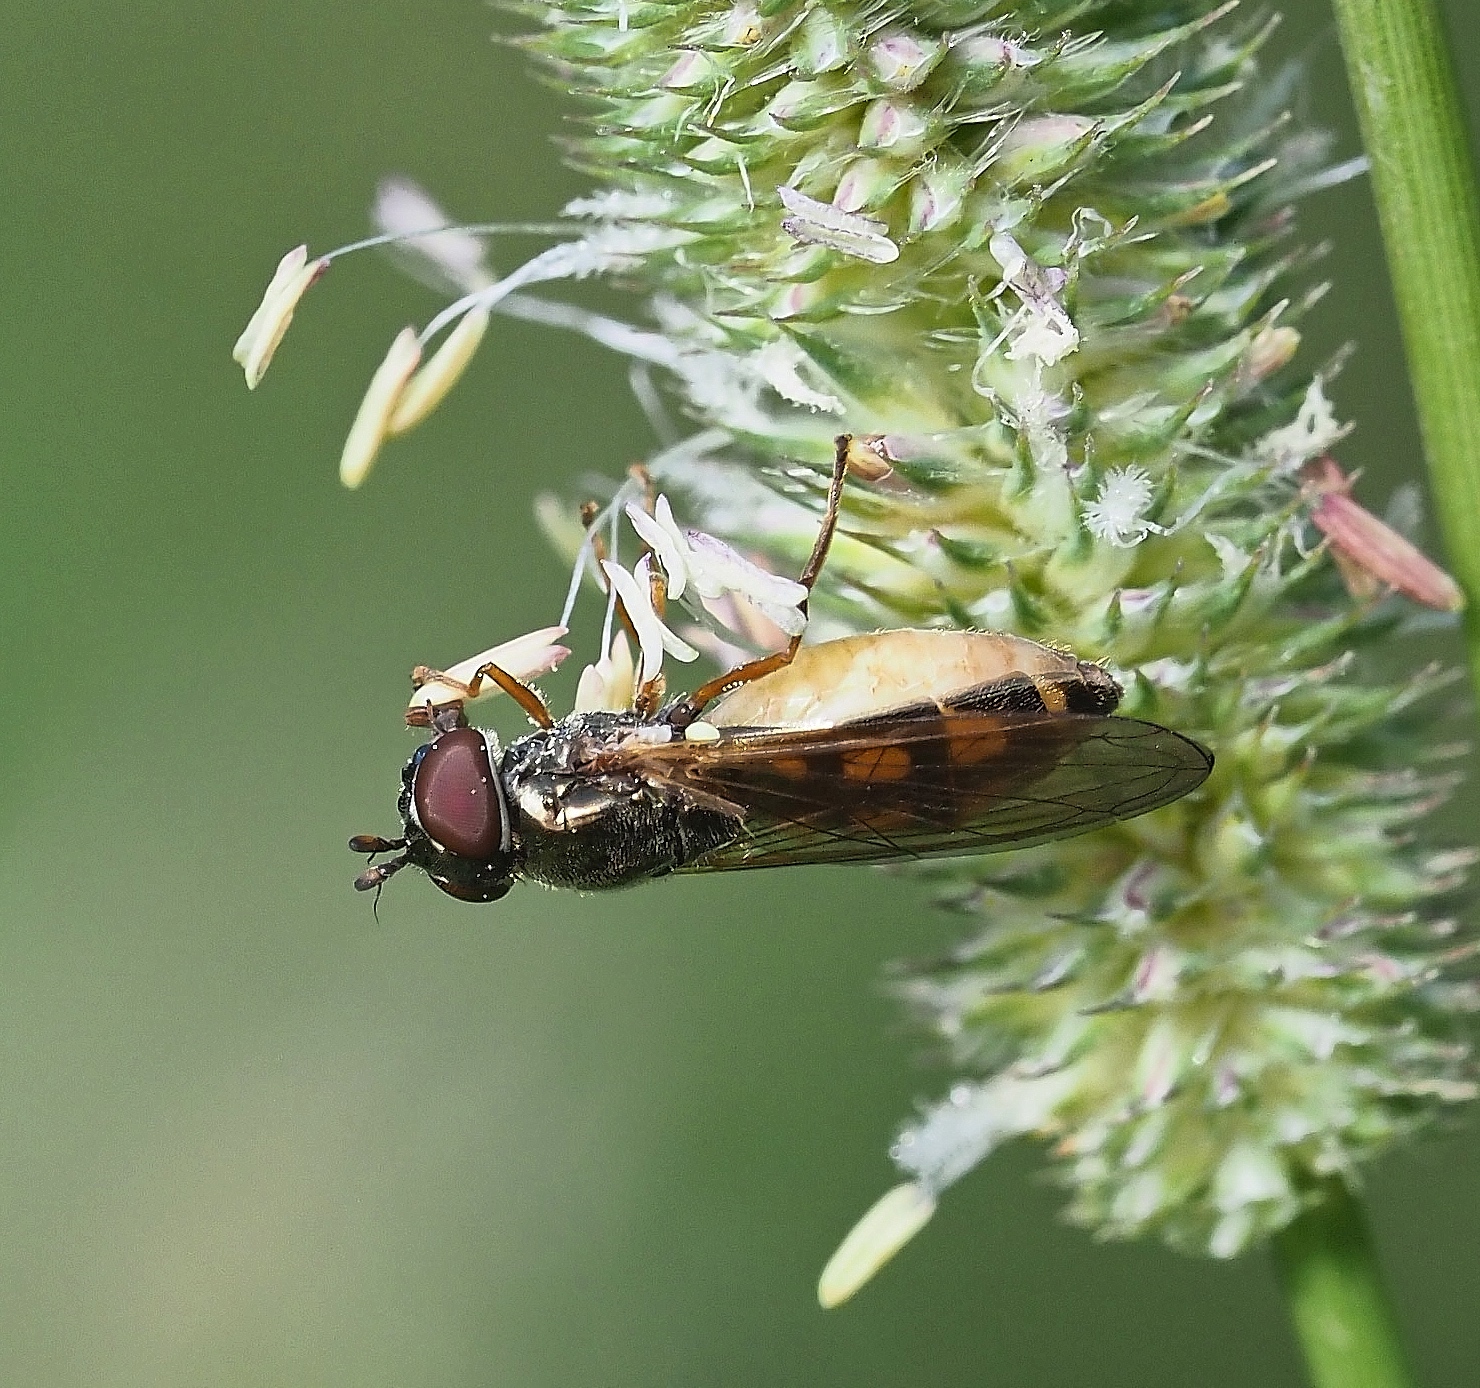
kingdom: Animalia
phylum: Arthropoda
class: Insecta
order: Diptera
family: Syrphidae
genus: Melanostoma
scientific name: Melanostoma mellina
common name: Hover fly
